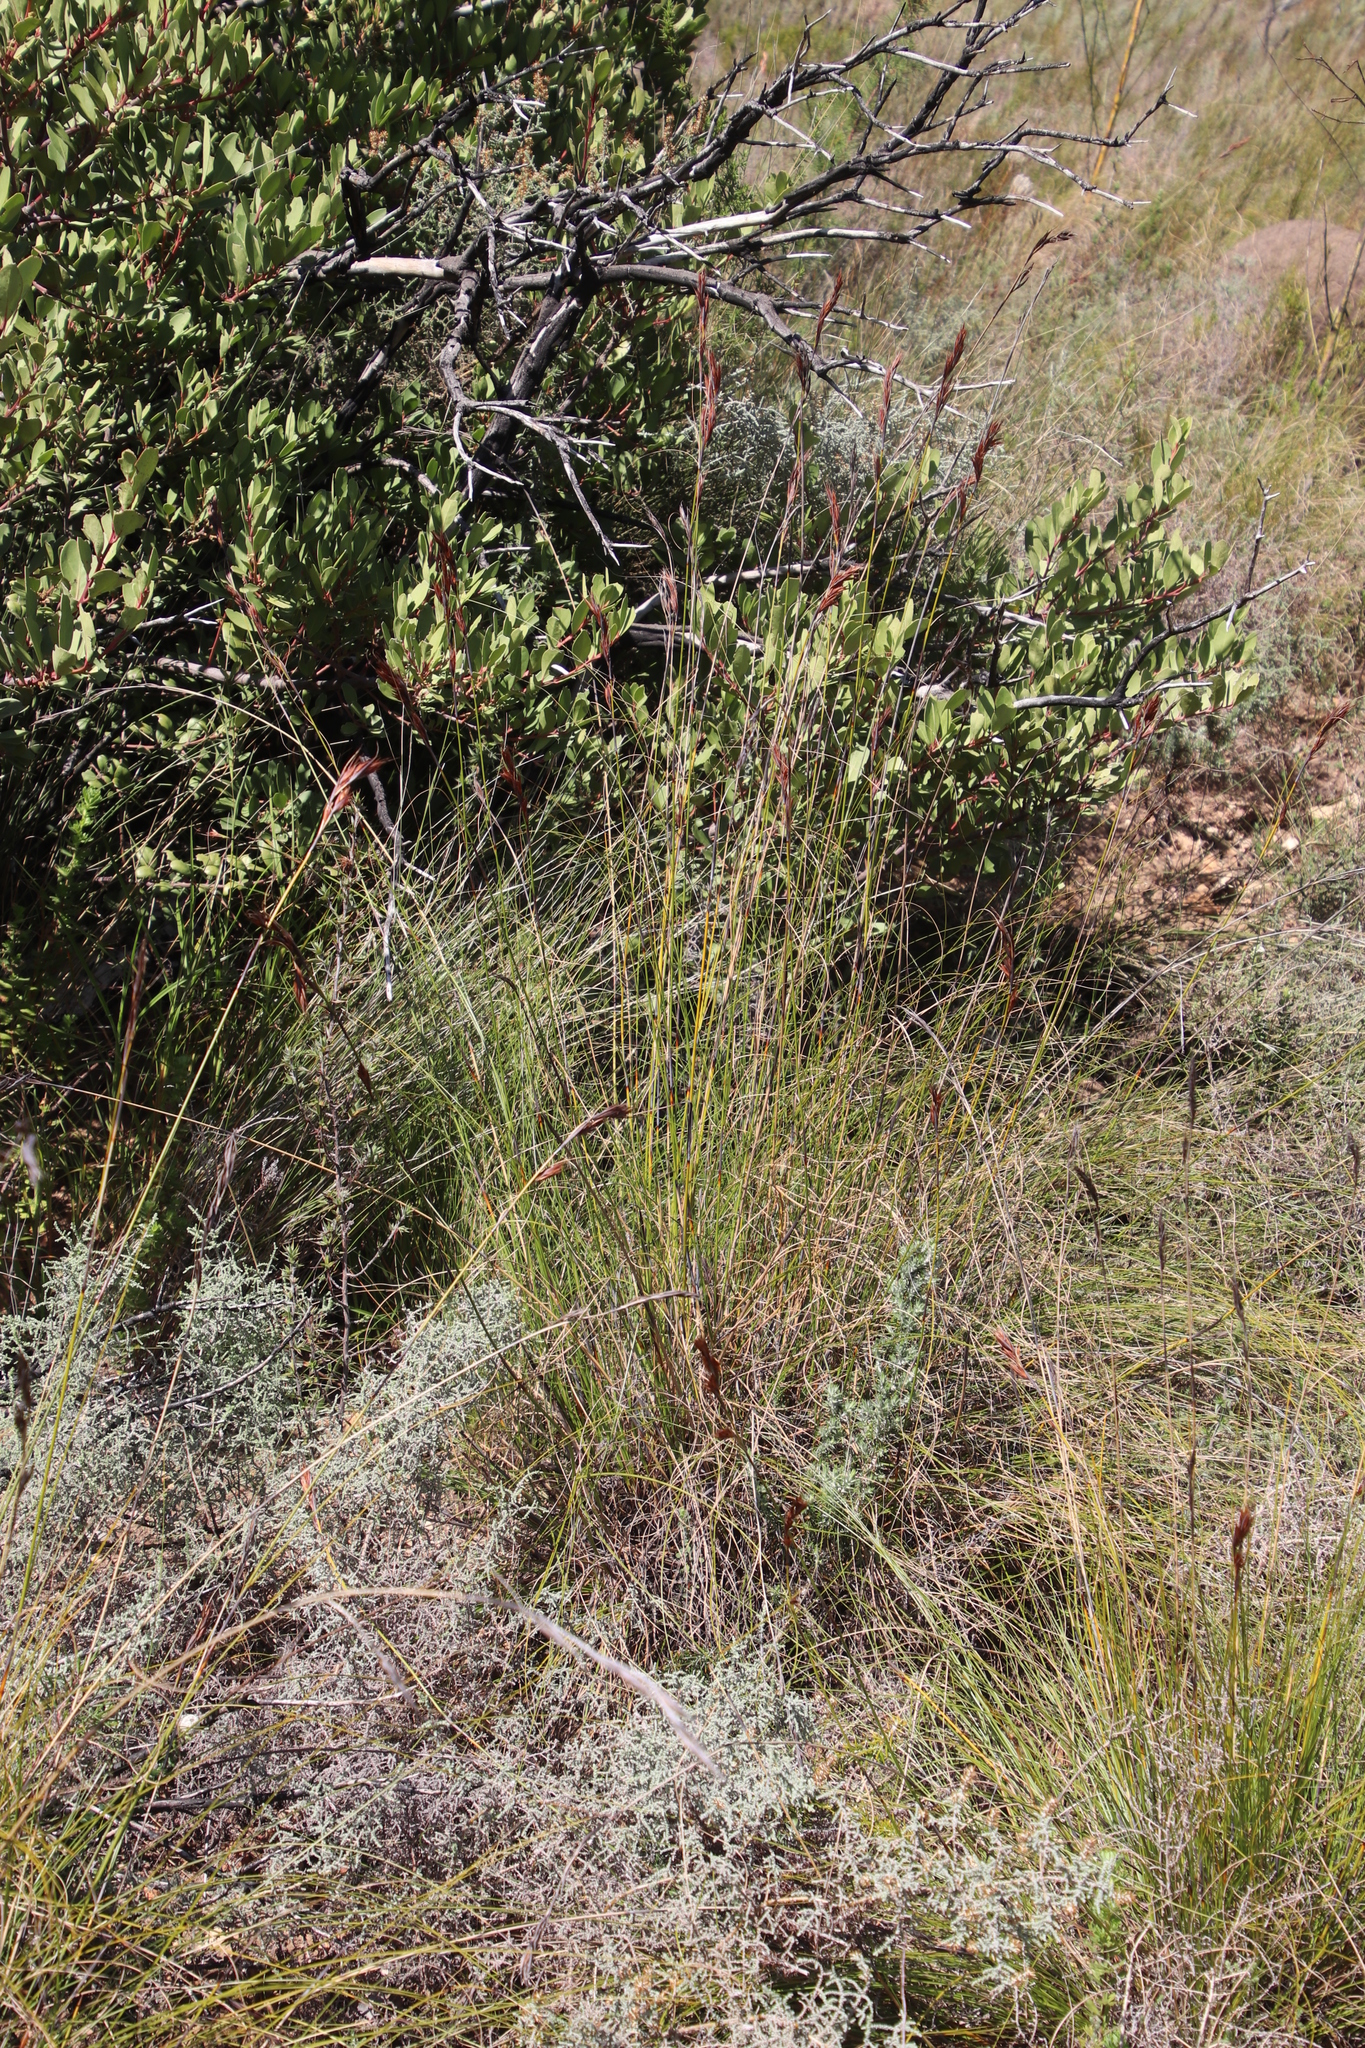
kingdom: Plantae
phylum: Tracheophyta
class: Liliopsida
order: Poales
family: Cyperaceae
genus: Tetraria
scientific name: Tetraria ustulata
